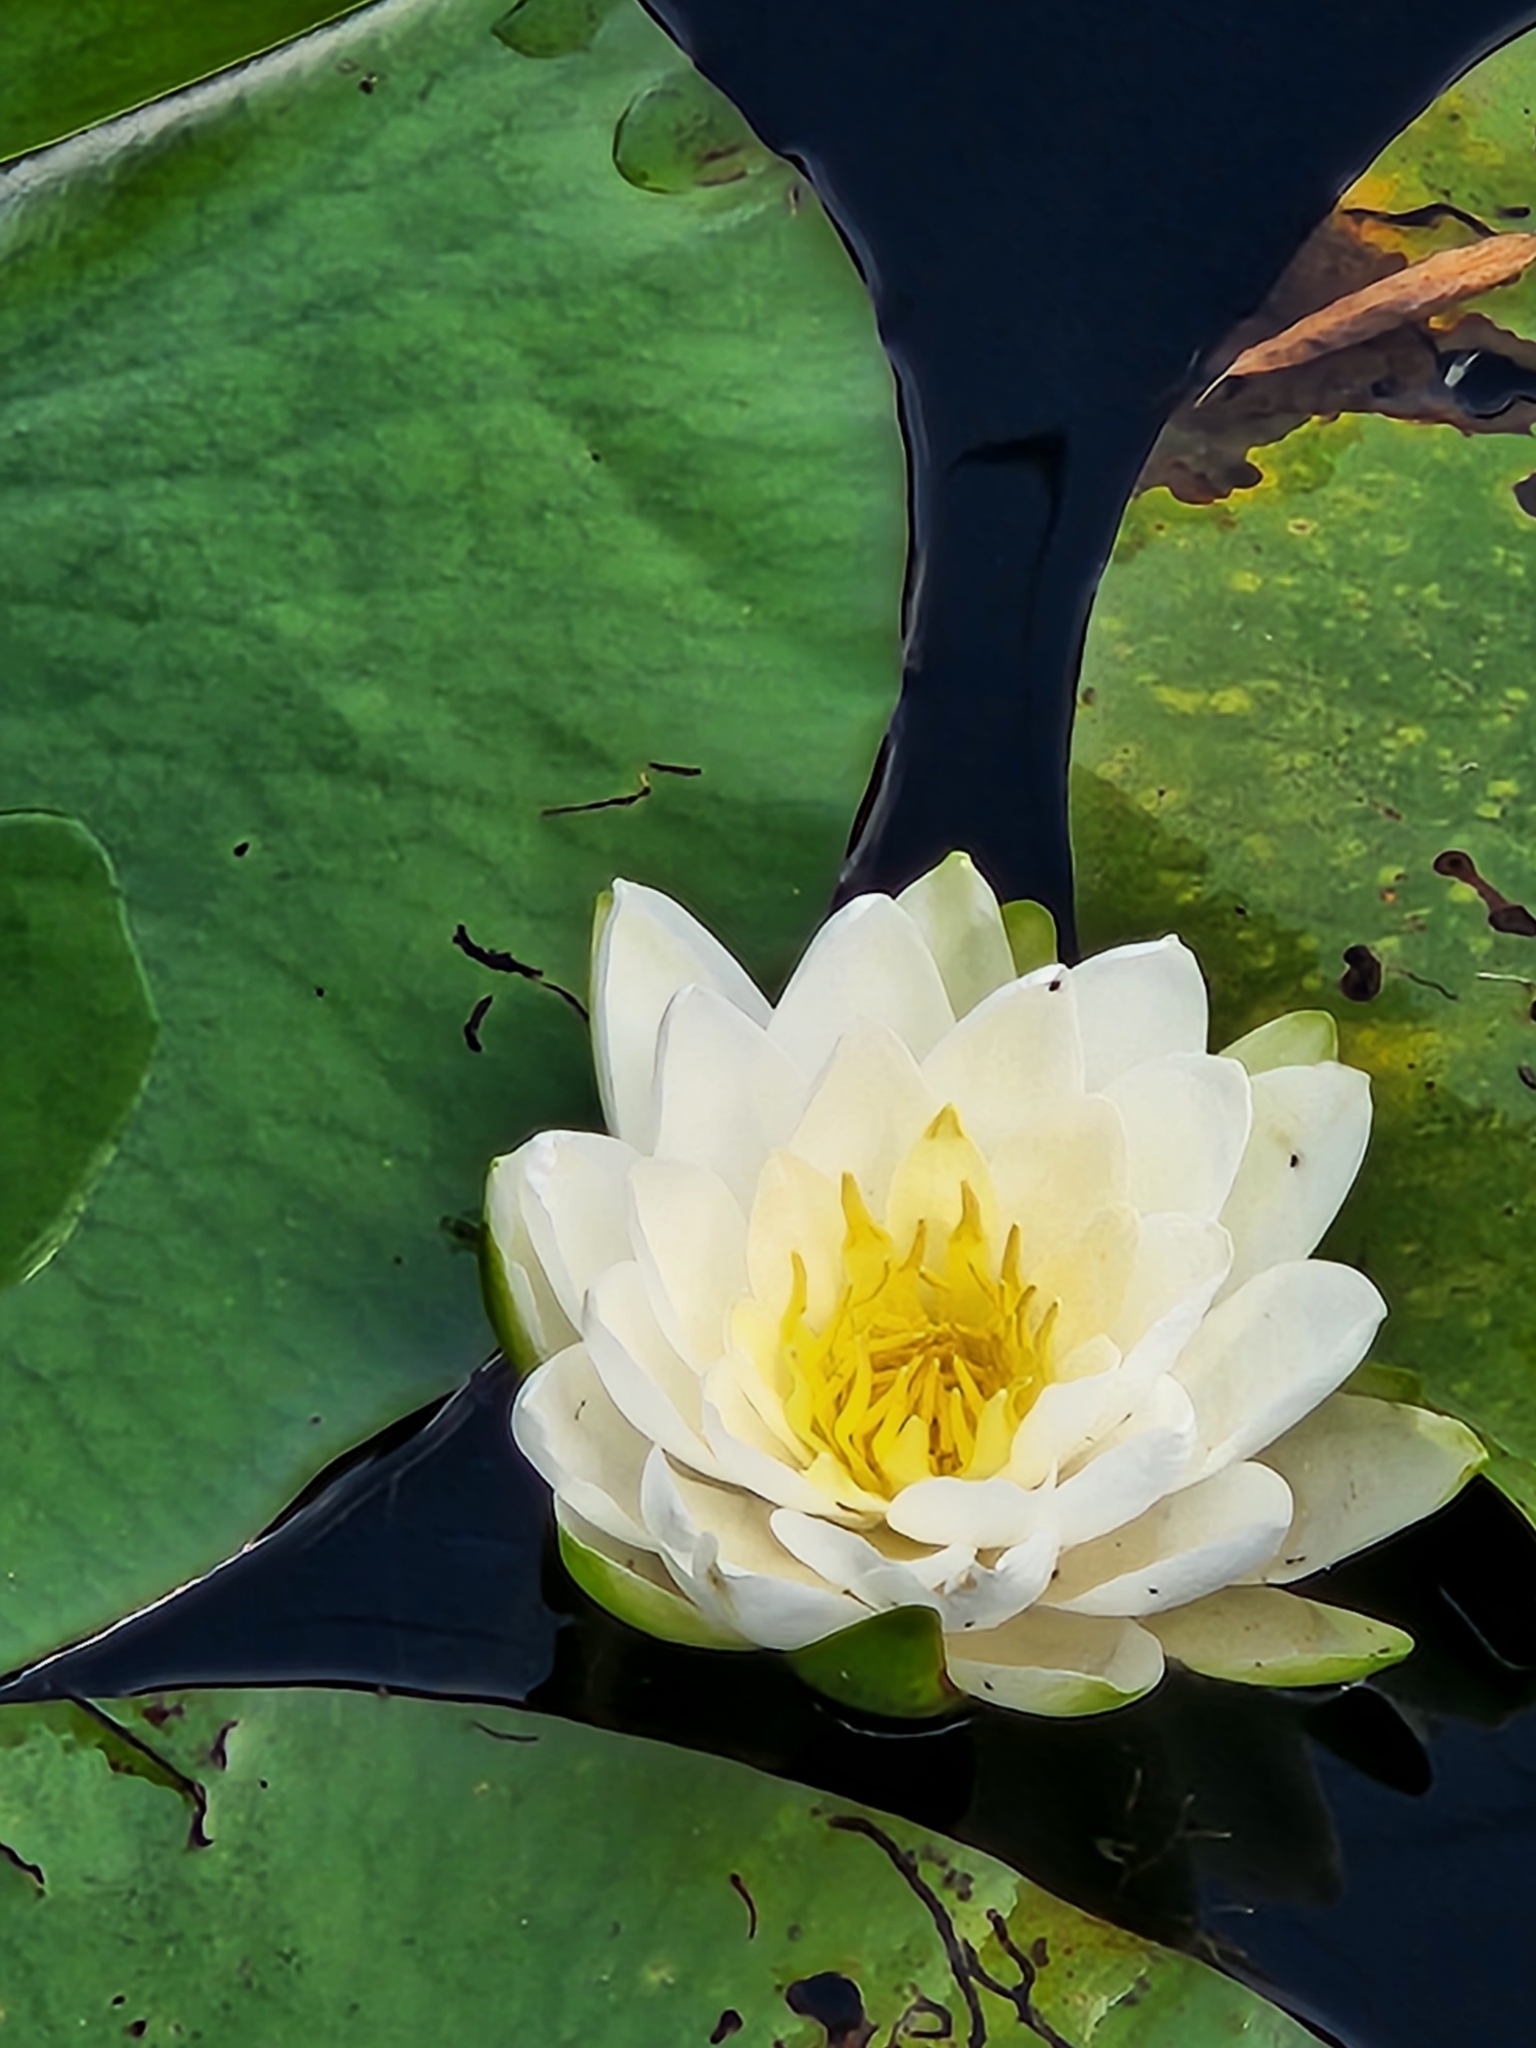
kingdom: Plantae
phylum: Tracheophyta
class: Magnoliopsida
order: Nymphaeales
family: Nymphaeaceae
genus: Nymphaea
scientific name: Nymphaea odorata
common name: Fragrant water-lily
